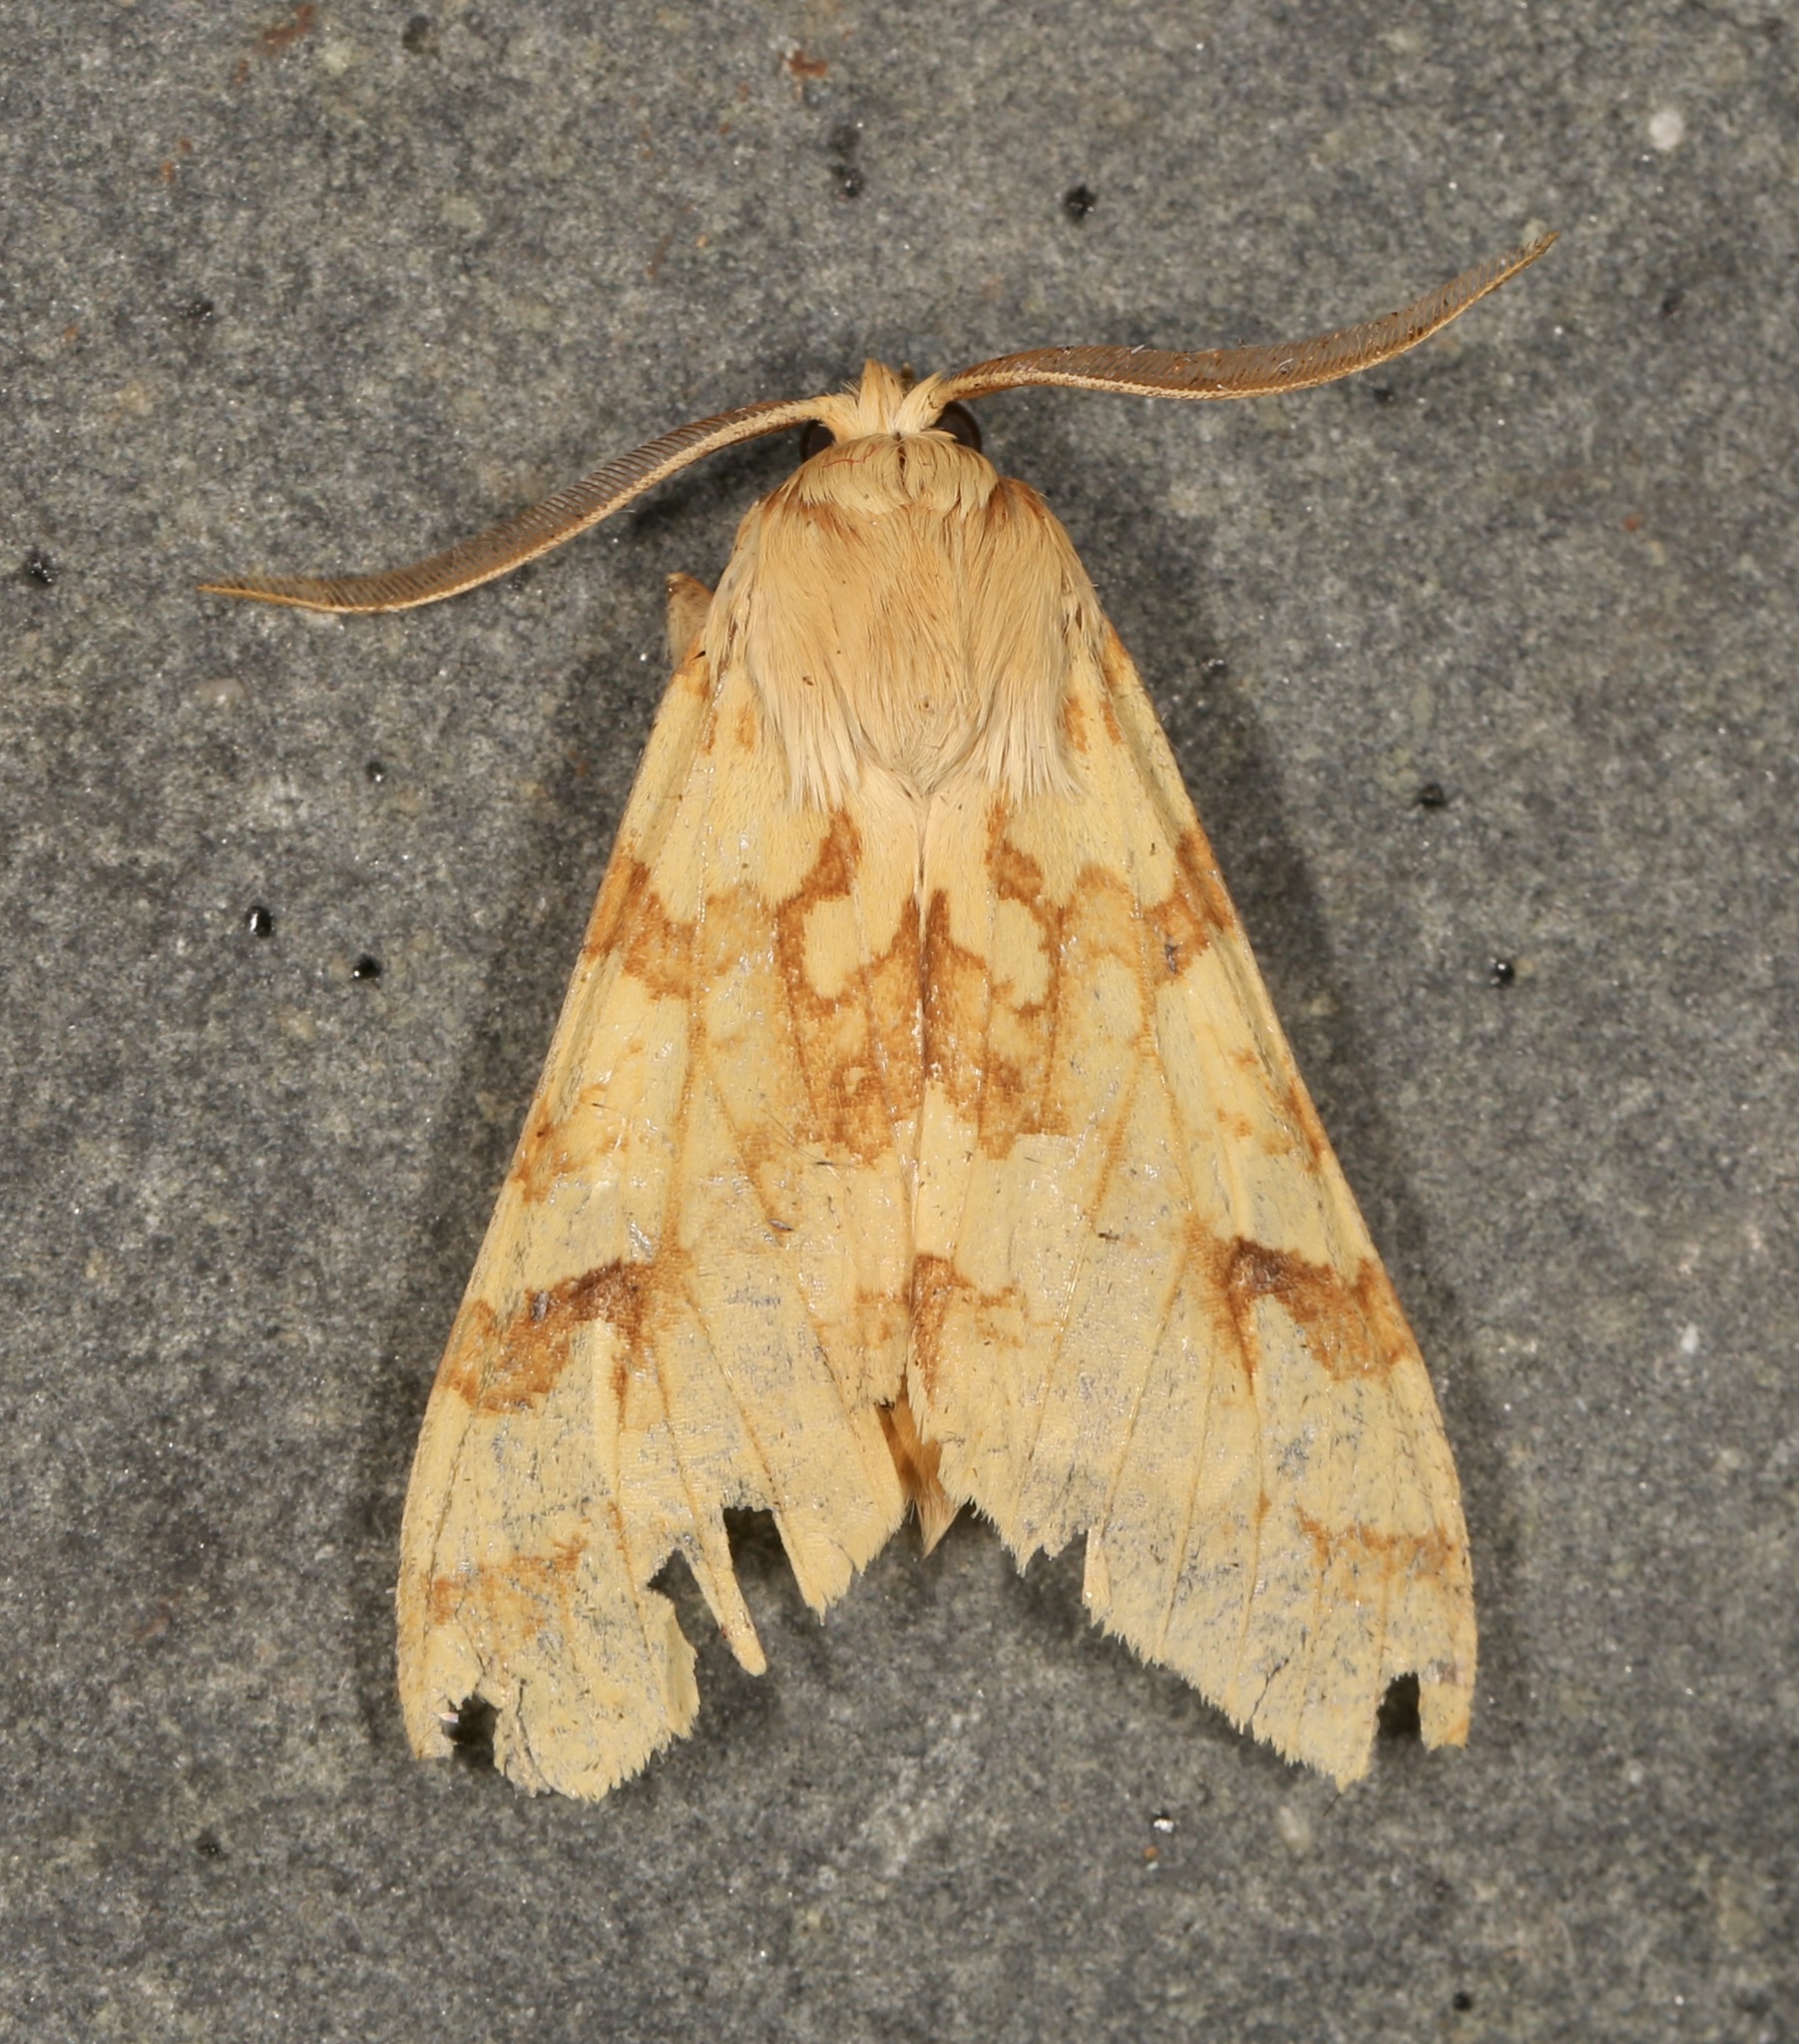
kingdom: Animalia
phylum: Arthropoda
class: Insecta
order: Lepidoptera
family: Erebidae
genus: Lophocampa
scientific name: Lophocampa maculata
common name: Spotted tussock moth
